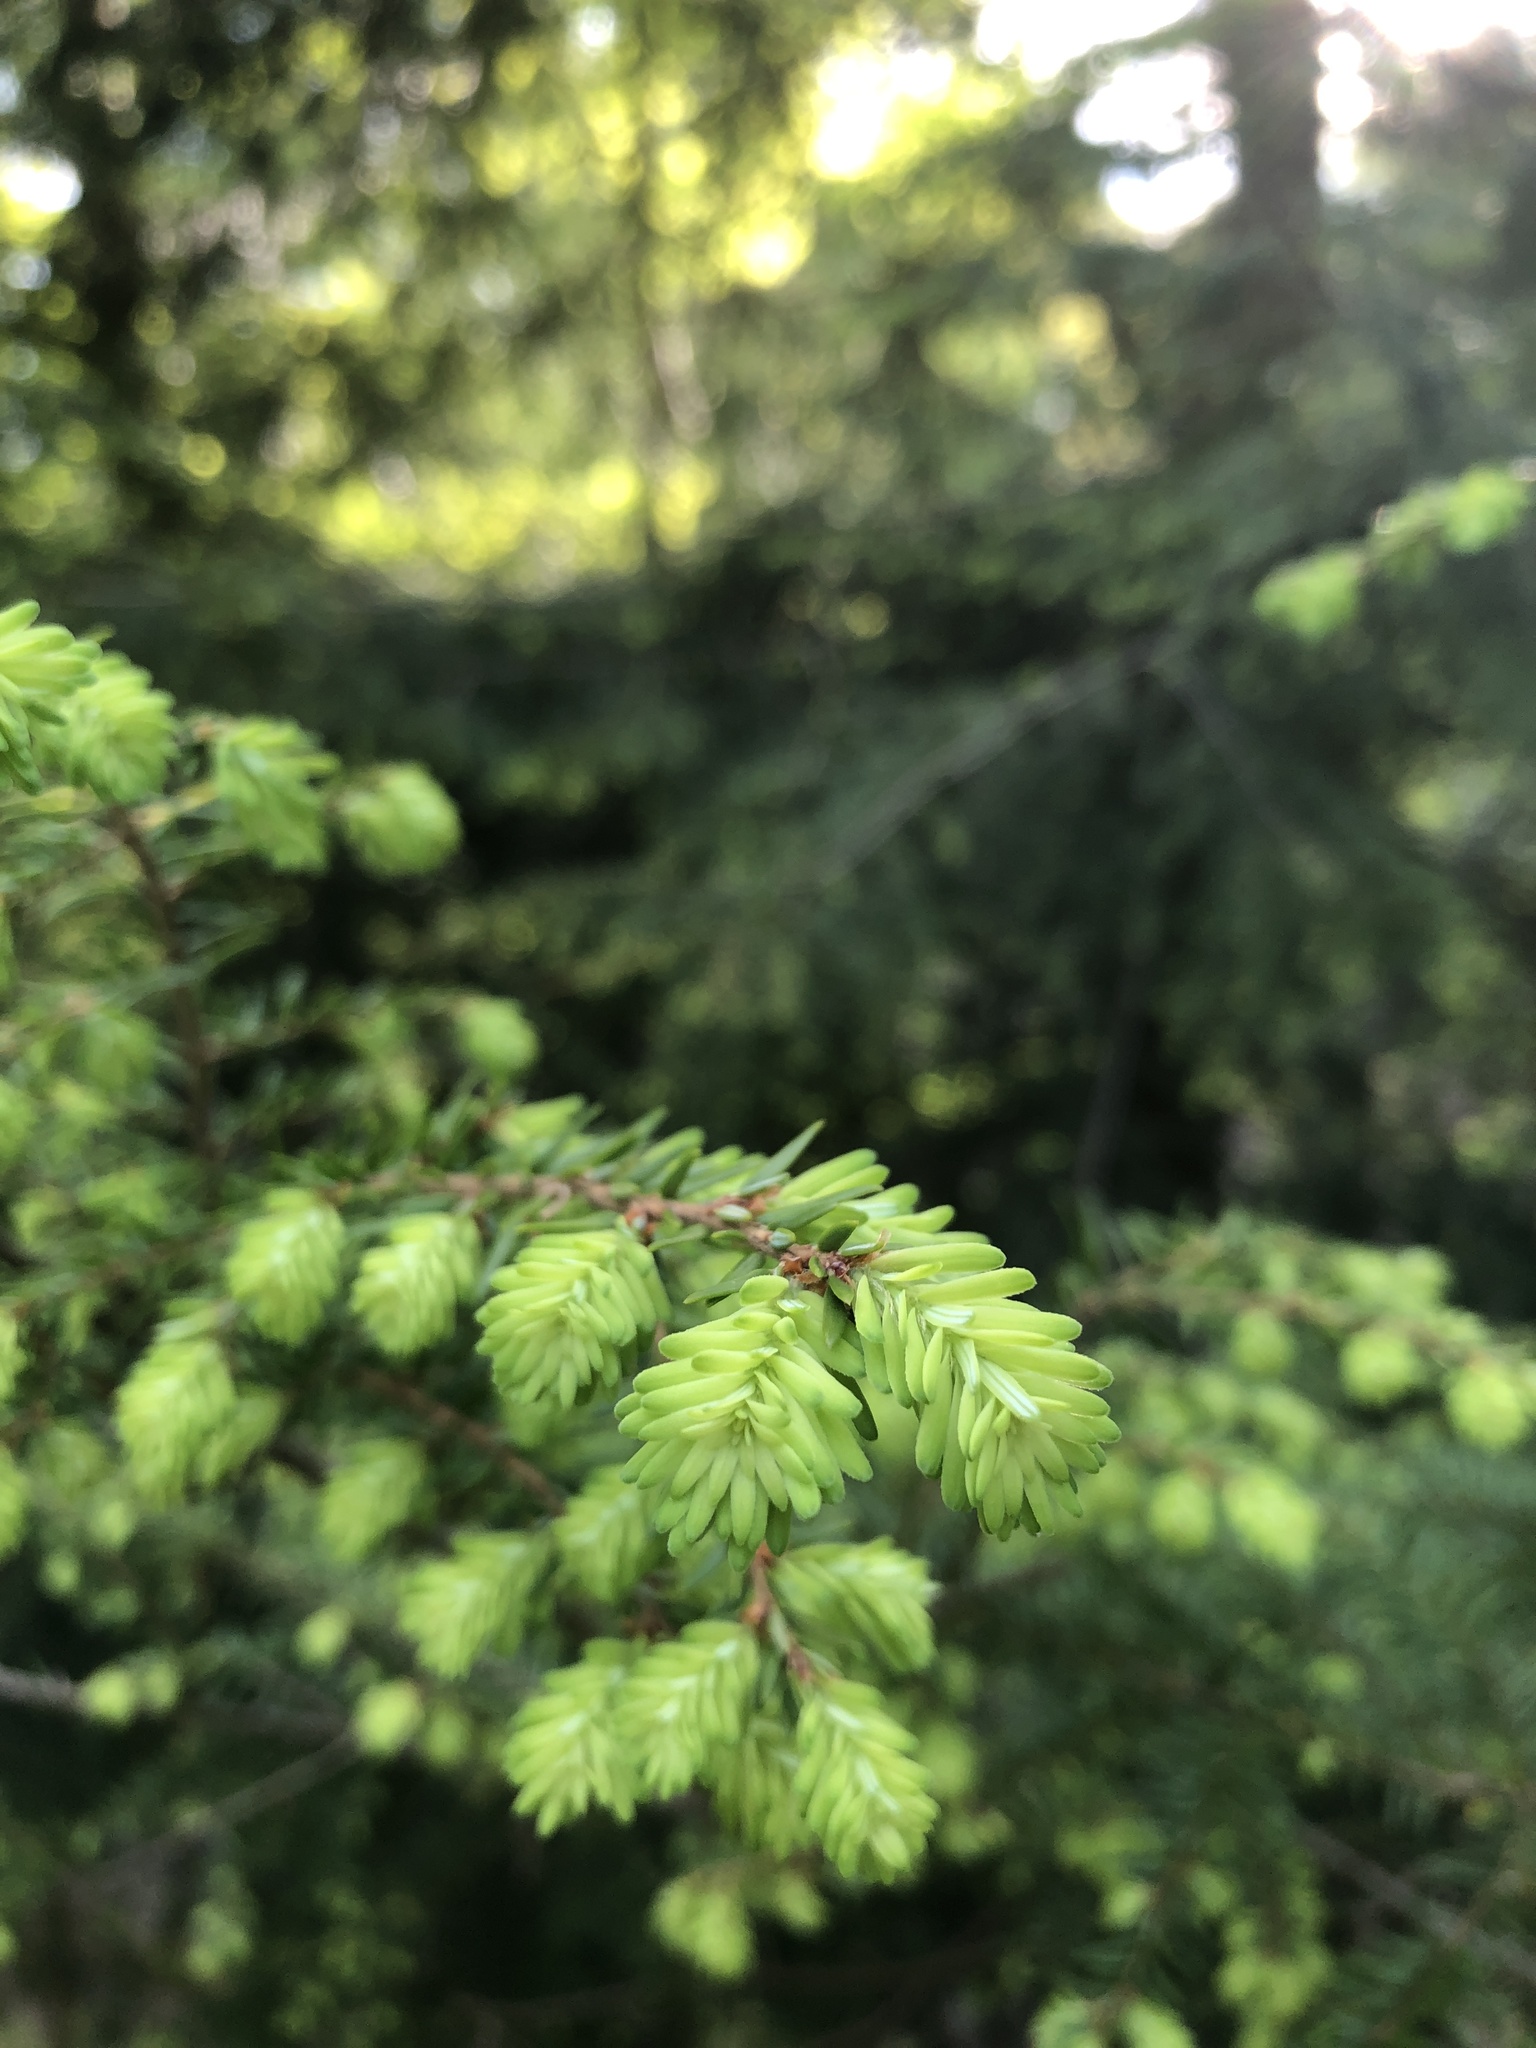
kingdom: Plantae
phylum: Tracheophyta
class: Pinopsida
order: Pinales
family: Pinaceae
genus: Tsuga
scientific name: Tsuga canadensis
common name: Eastern hemlock
